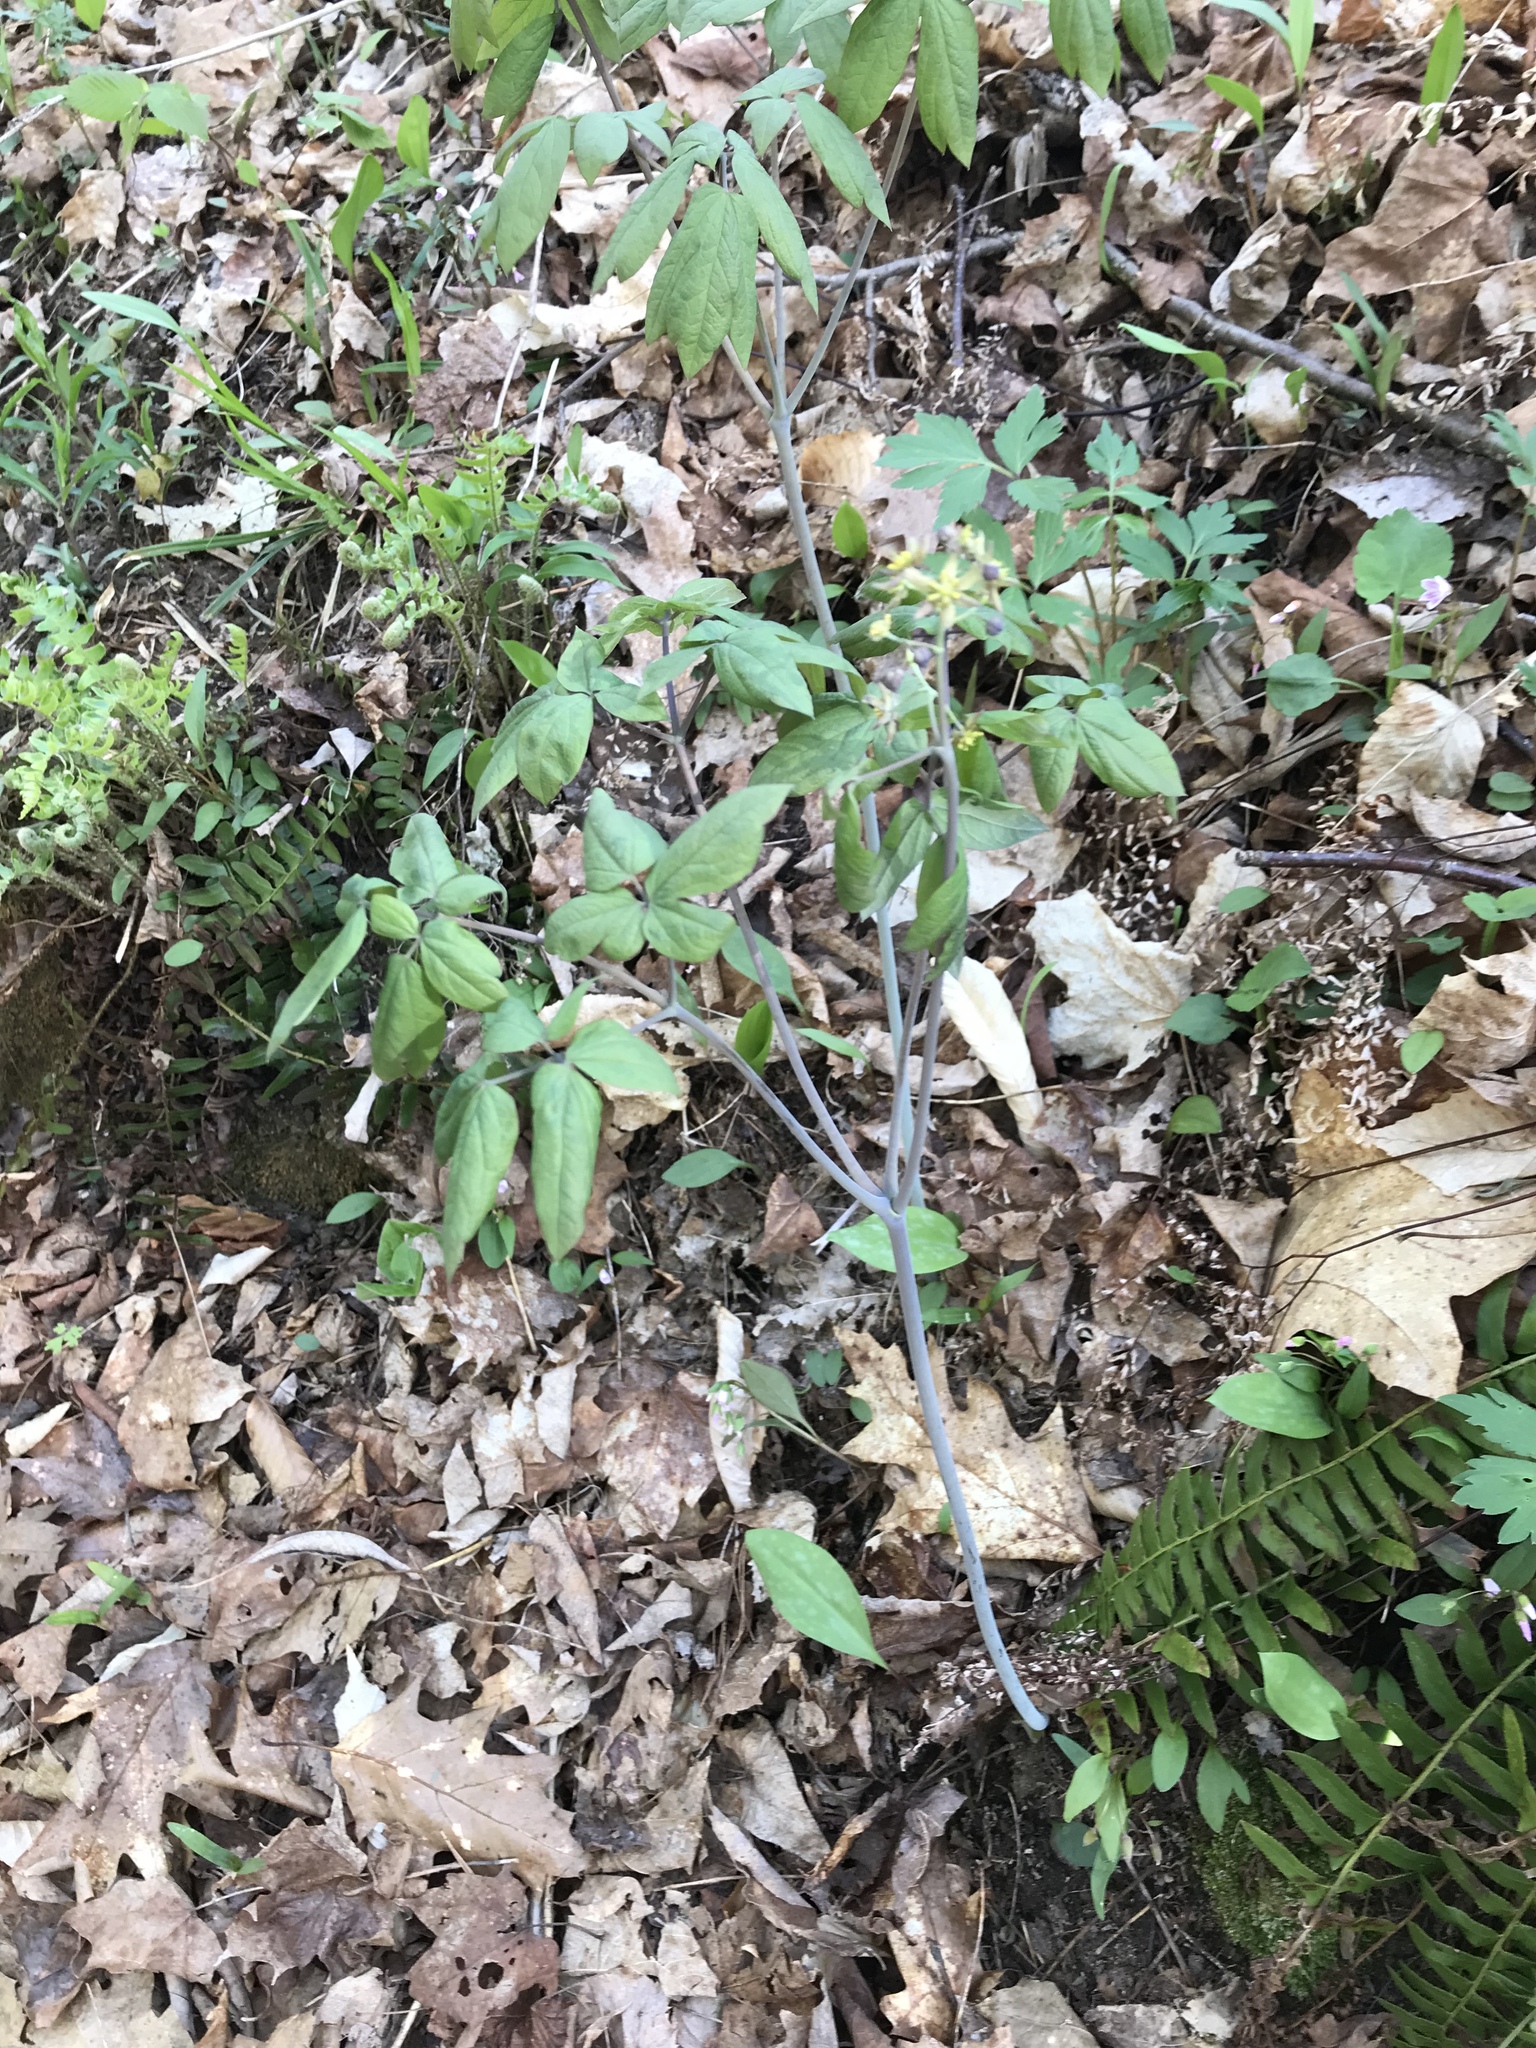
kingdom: Plantae
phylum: Tracheophyta
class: Magnoliopsida
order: Ranunculales
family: Berberidaceae
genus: Caulophyllum
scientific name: Caulophyllum thalictroides
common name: Blue cohosh
